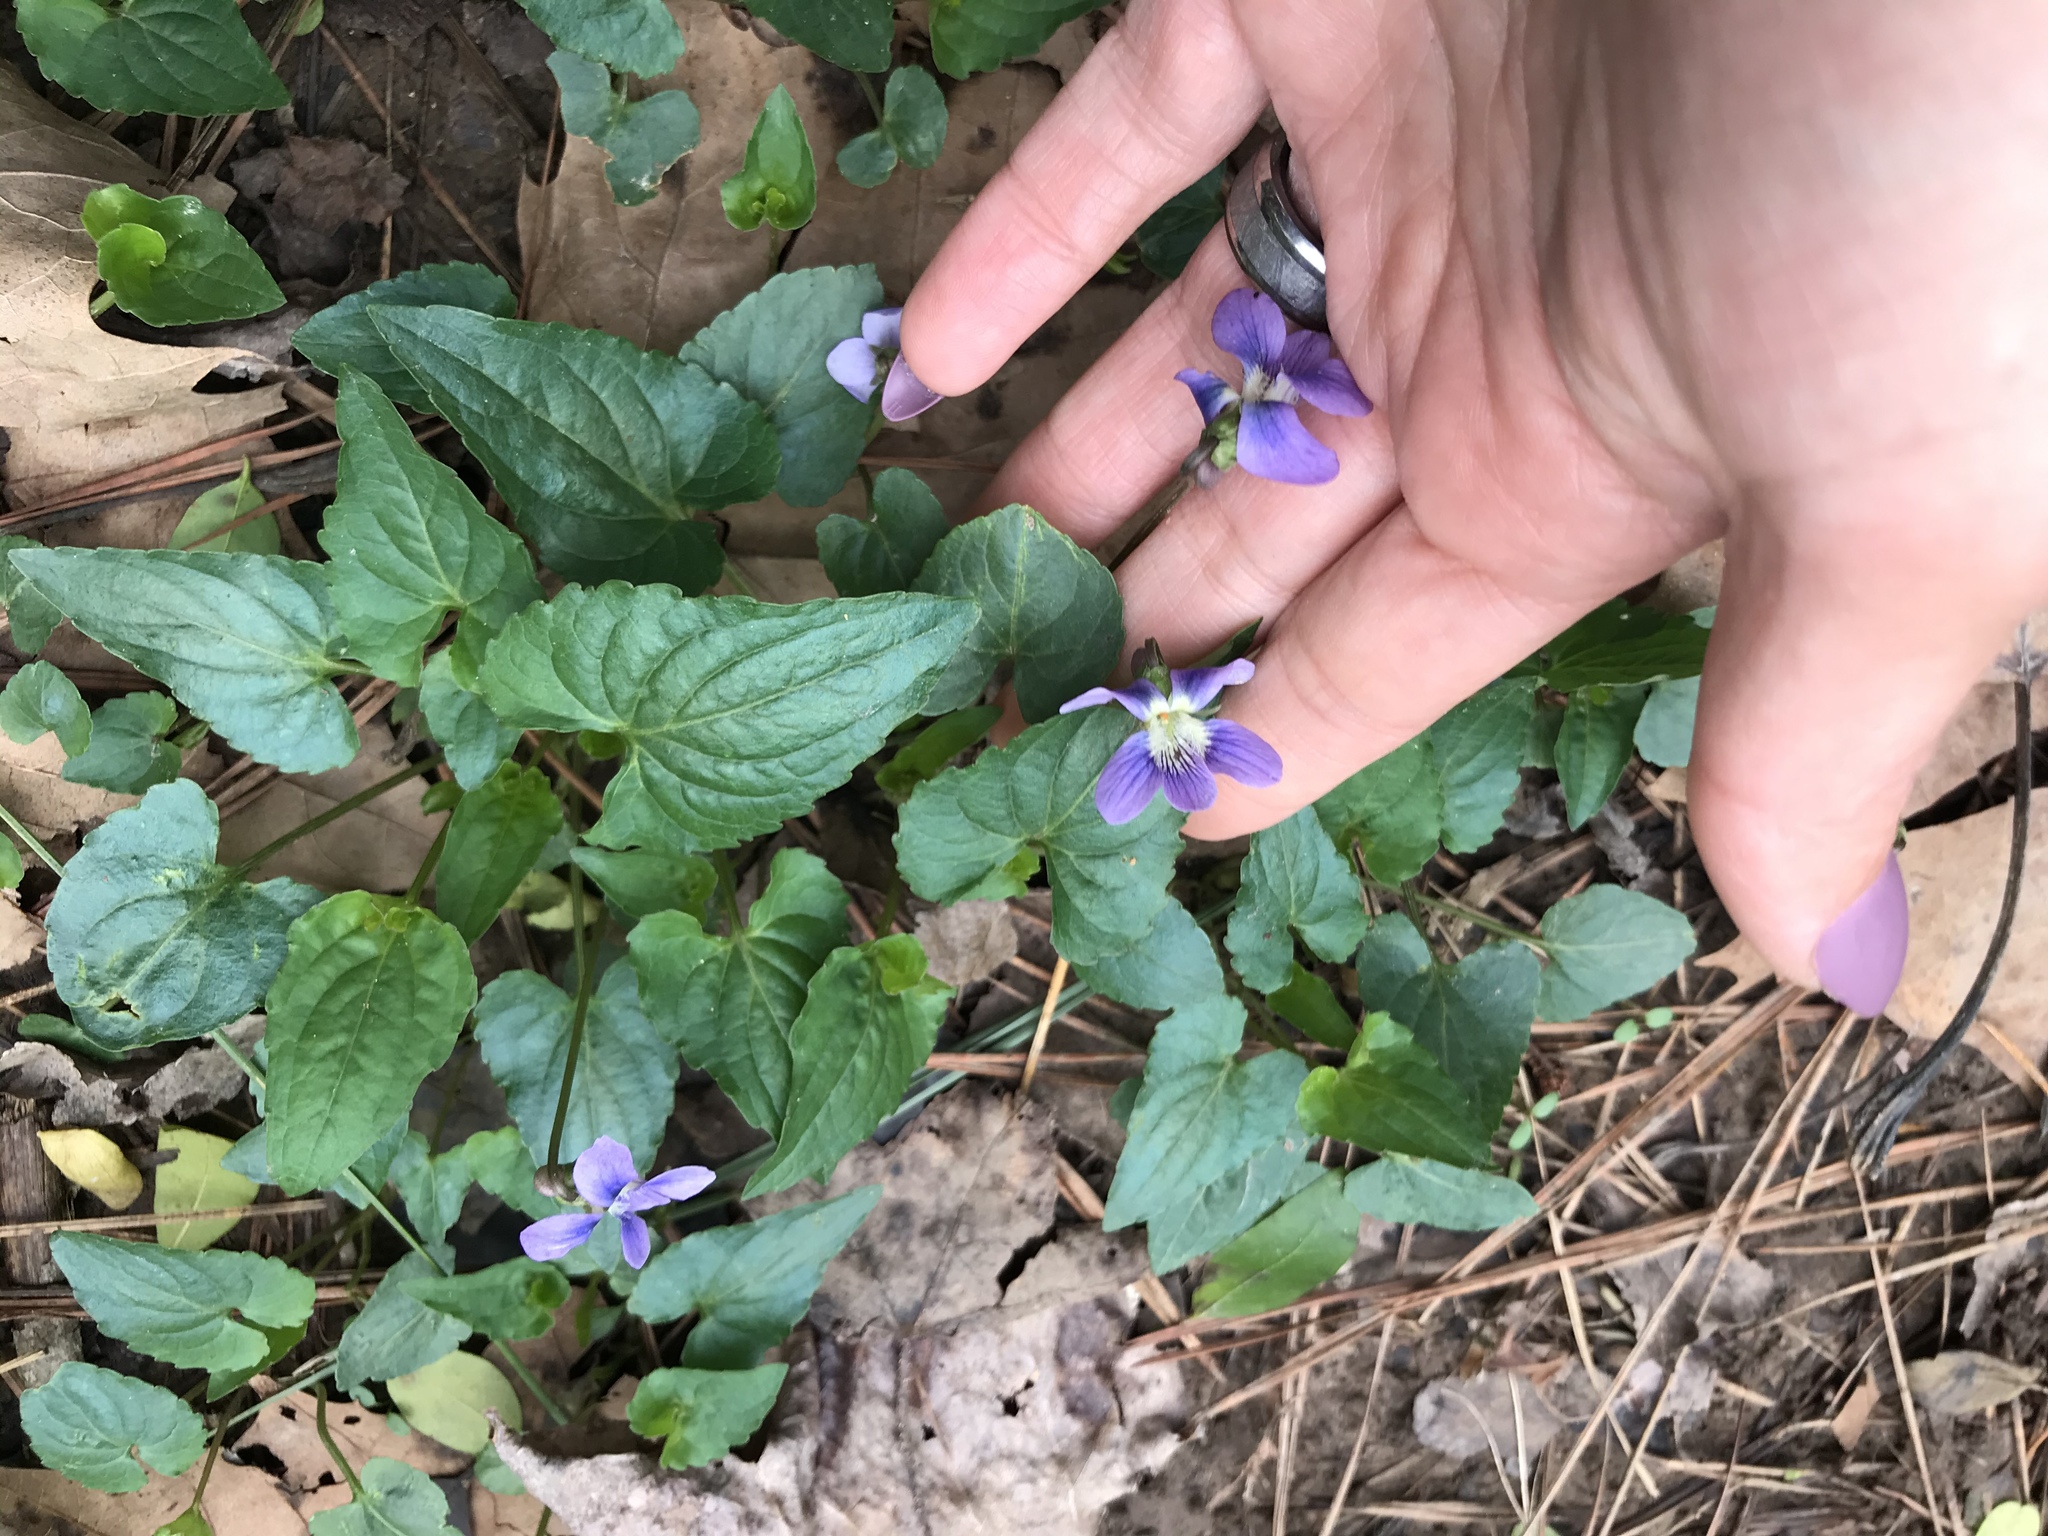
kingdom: Plantae
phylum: Tracheophyta
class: Magnoliopsida
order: Malpighiales
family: Violaceae
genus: Viola
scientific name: Viola sororia
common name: Dooryard violet
